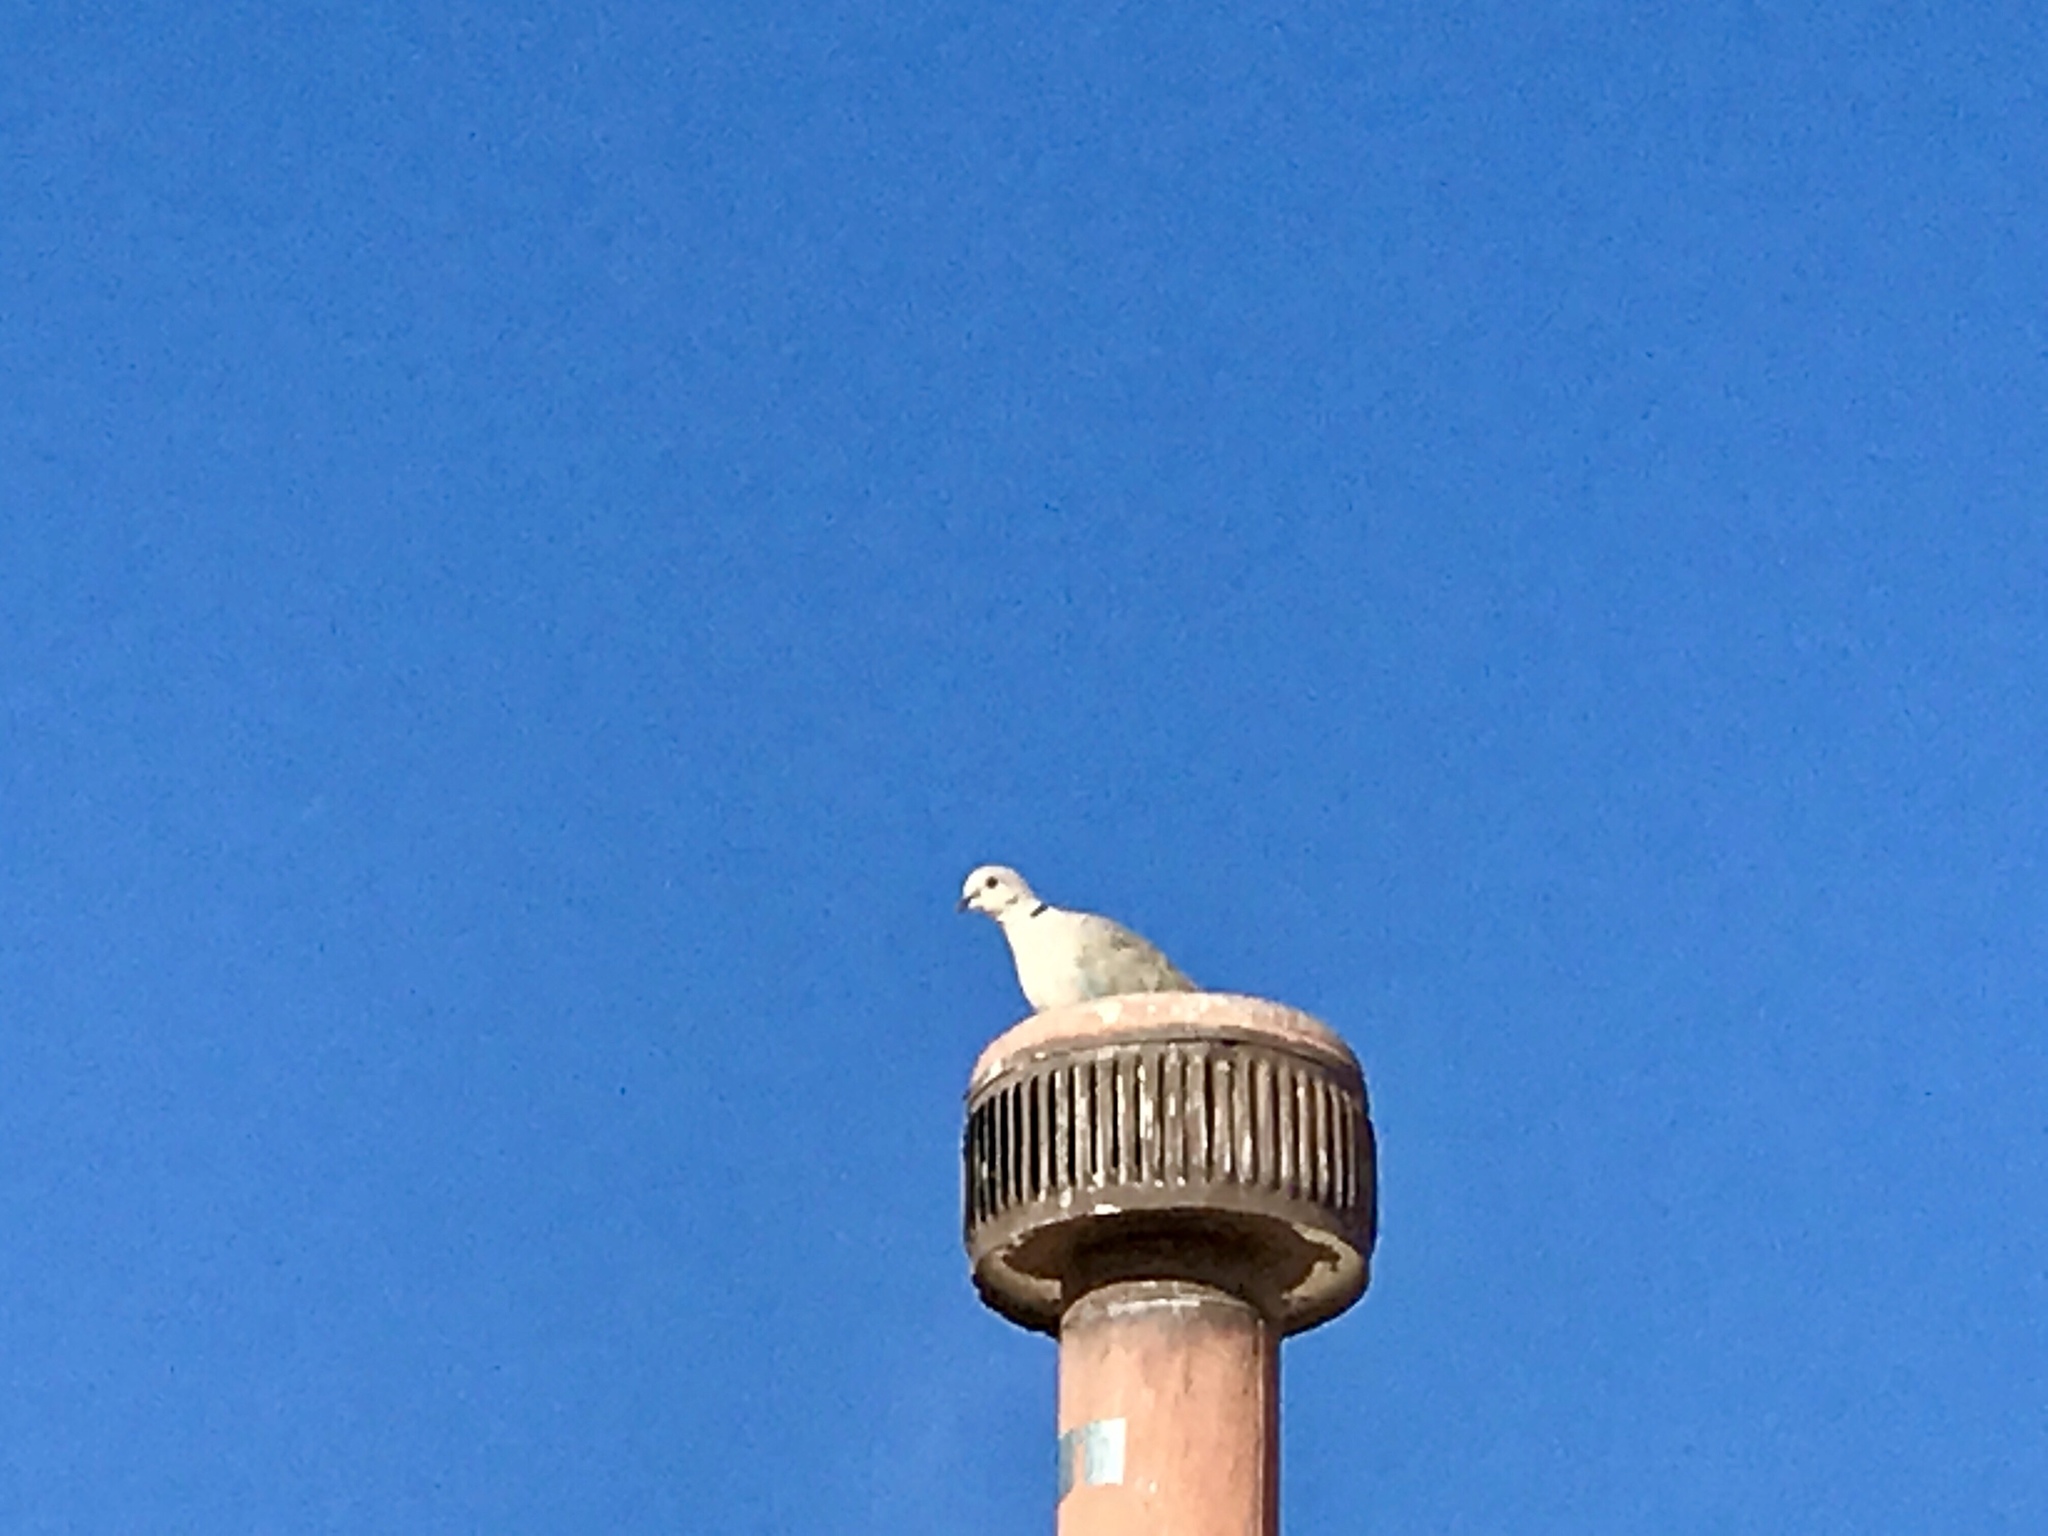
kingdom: Animalia
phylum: Chordata
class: Aves
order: Columbiformes
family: Columbidae
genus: Streptopelia
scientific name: Streptopelia decaocto
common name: Eurasian collared dove
